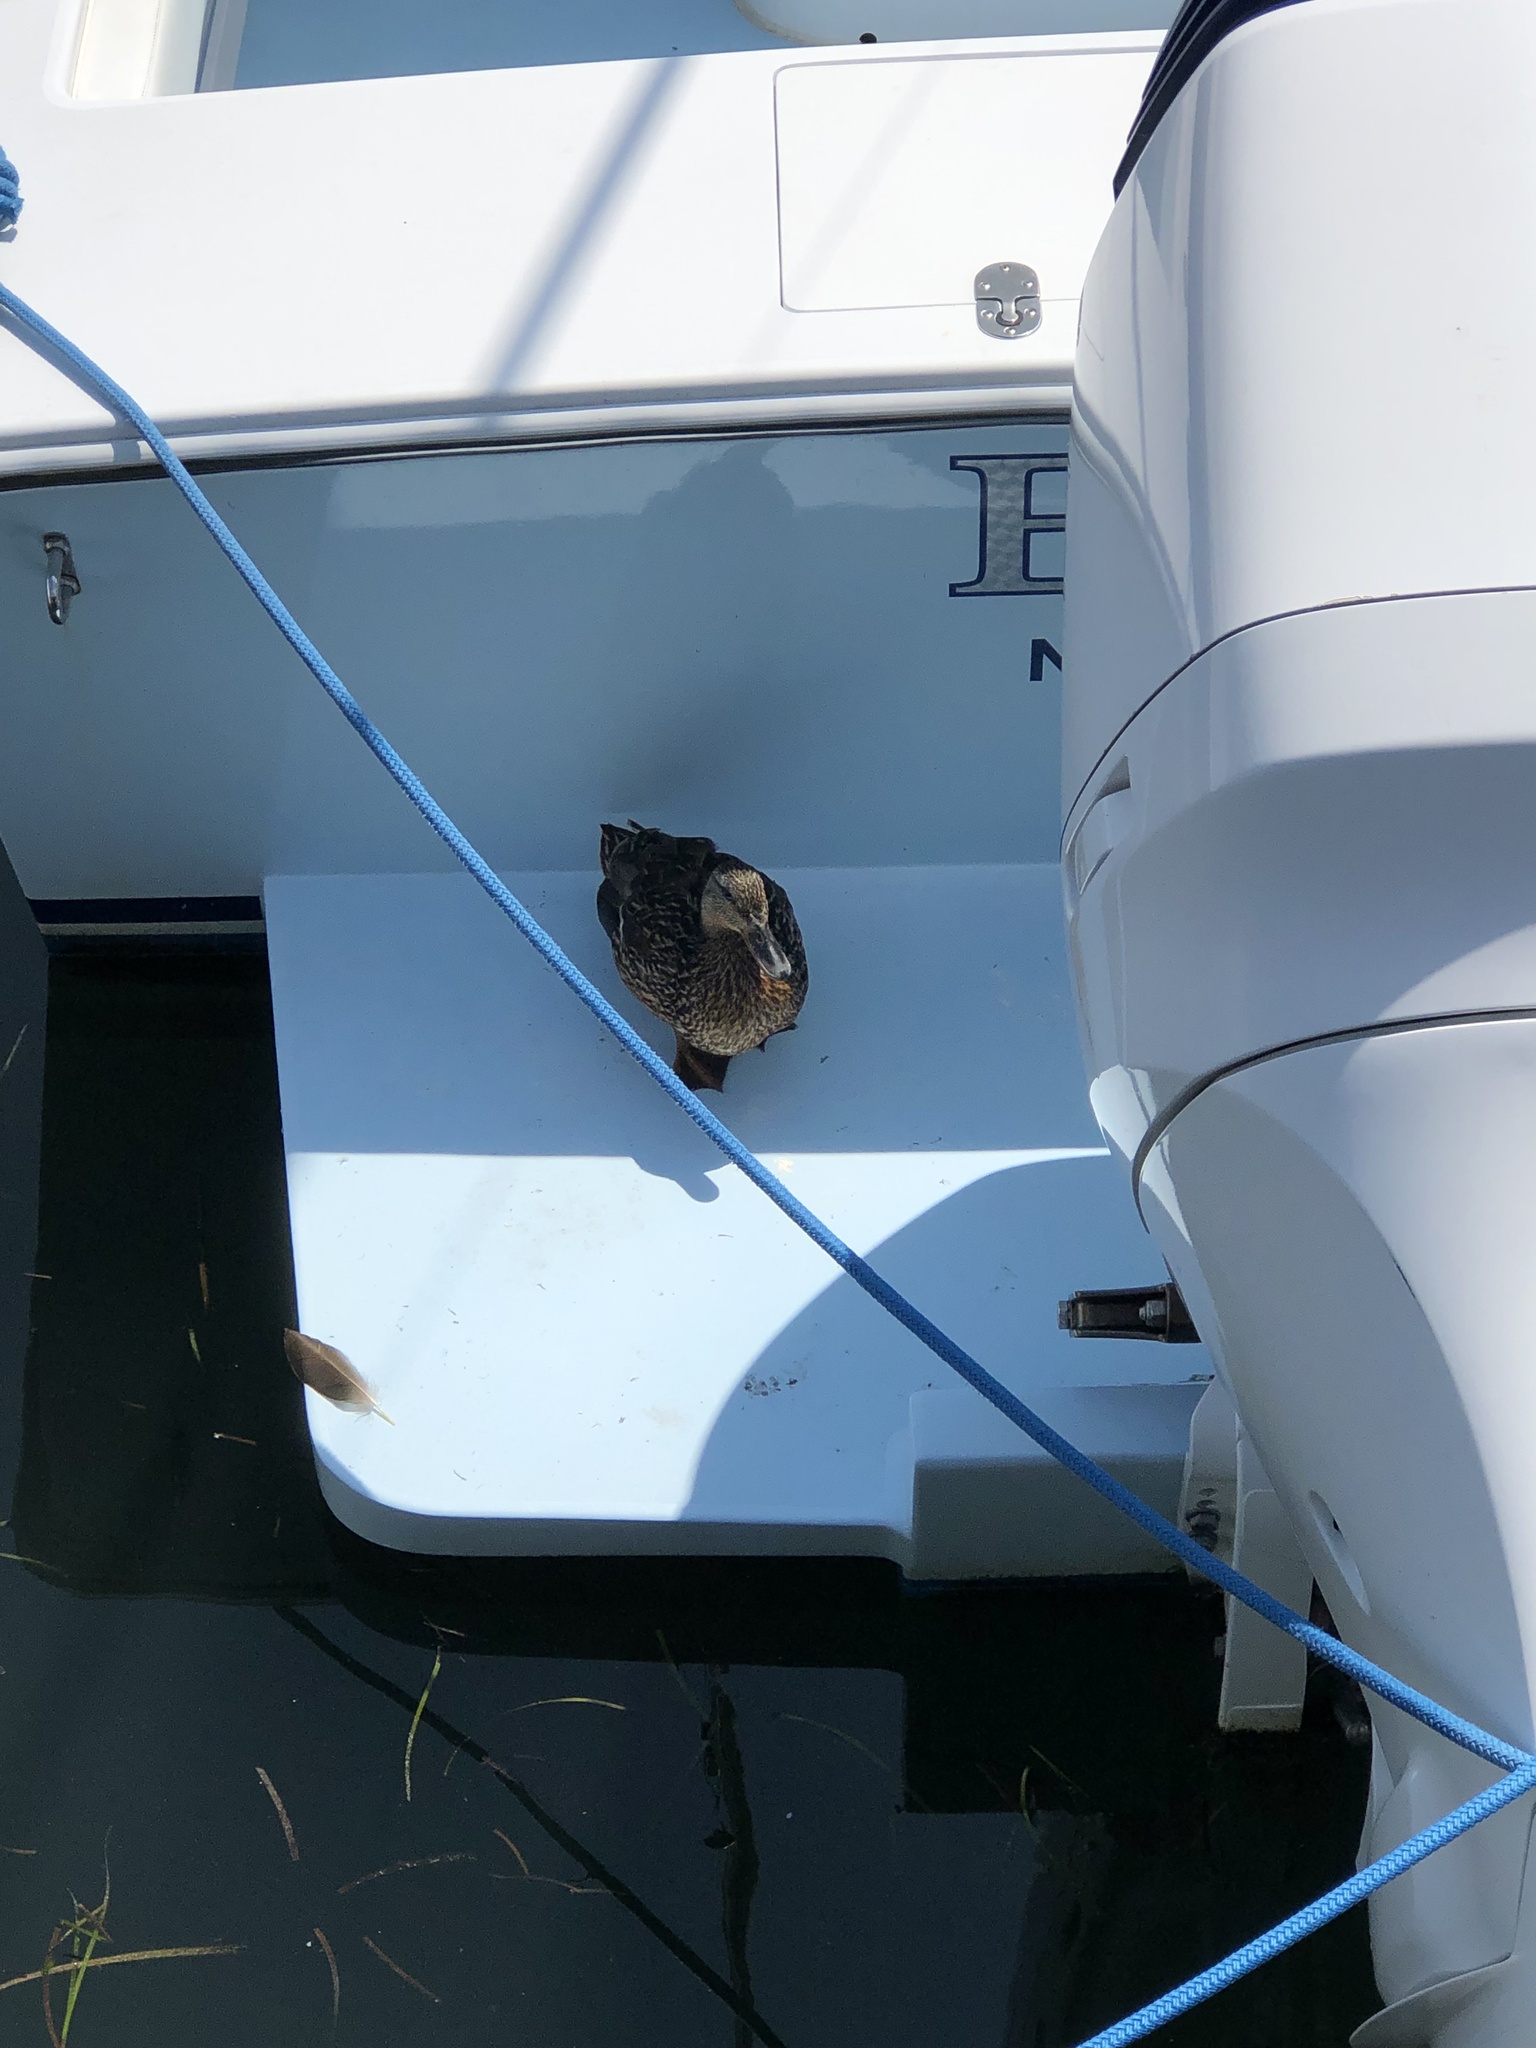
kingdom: Animalia
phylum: Chordata
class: Aves
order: Anseriformes
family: Anatidae
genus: Anas
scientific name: Anas platyrhynchos
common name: Mallard
